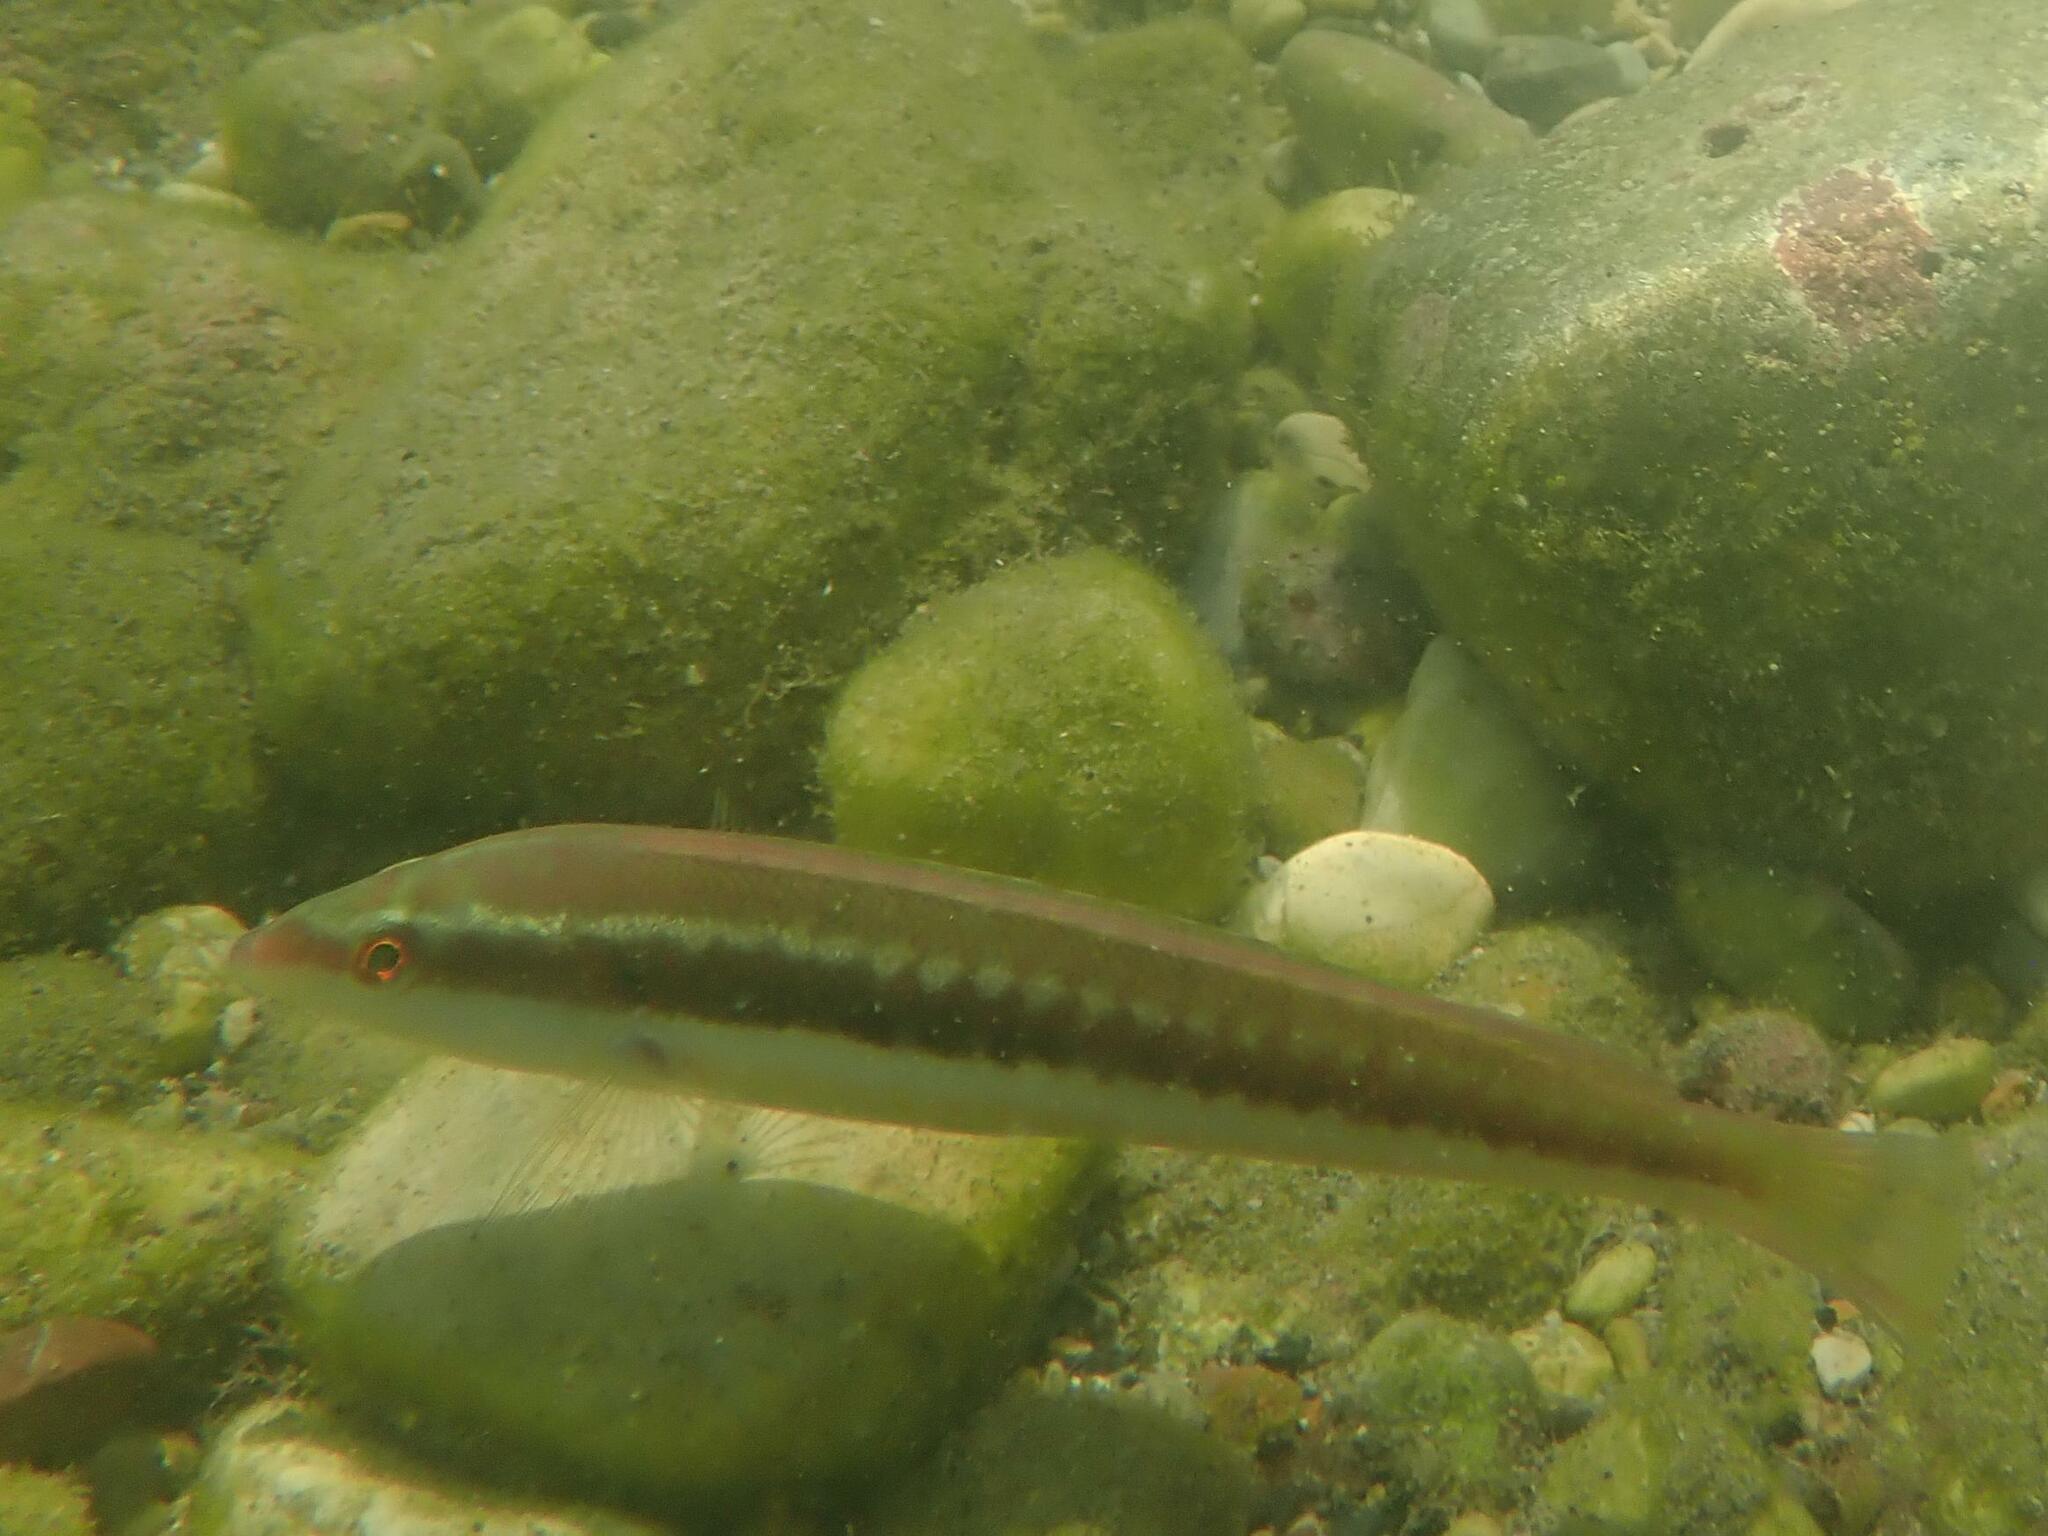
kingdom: Animalia
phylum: Chordata
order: Perciformes
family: Labridae
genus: Coris
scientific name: Coris julis
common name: Rainbow wrasse
